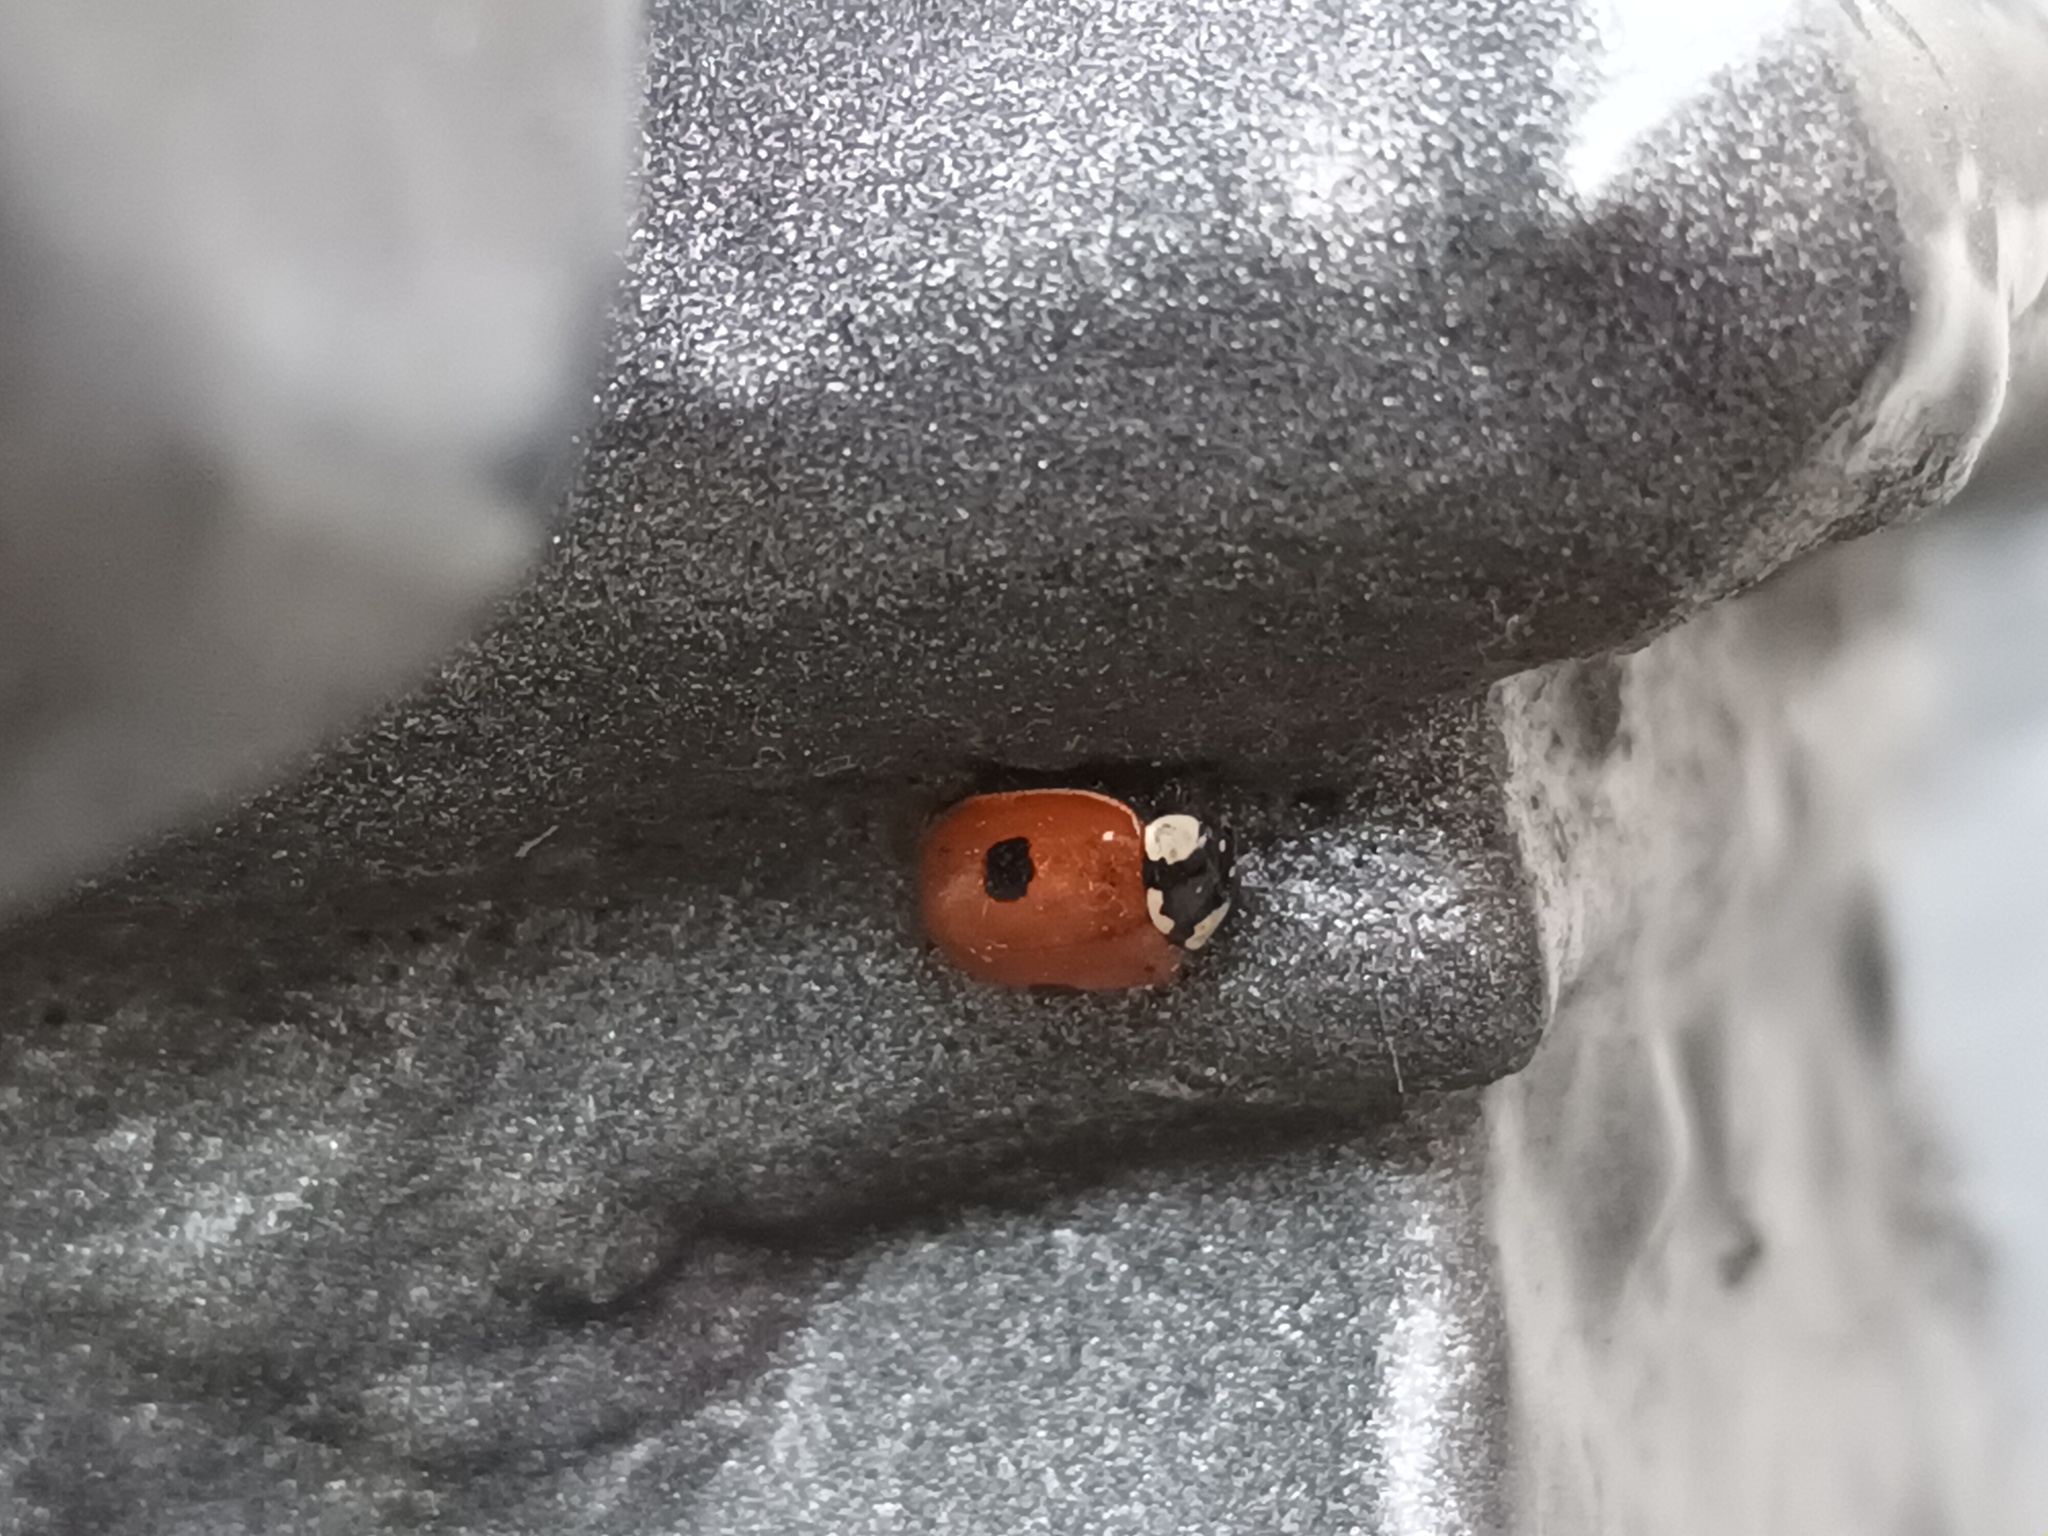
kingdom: Animalia
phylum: Arthropoda
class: Insecta
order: Coleoptera
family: Coccinellidae
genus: Adalia
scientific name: Adalia bipunctata
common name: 2-spot ladybird
